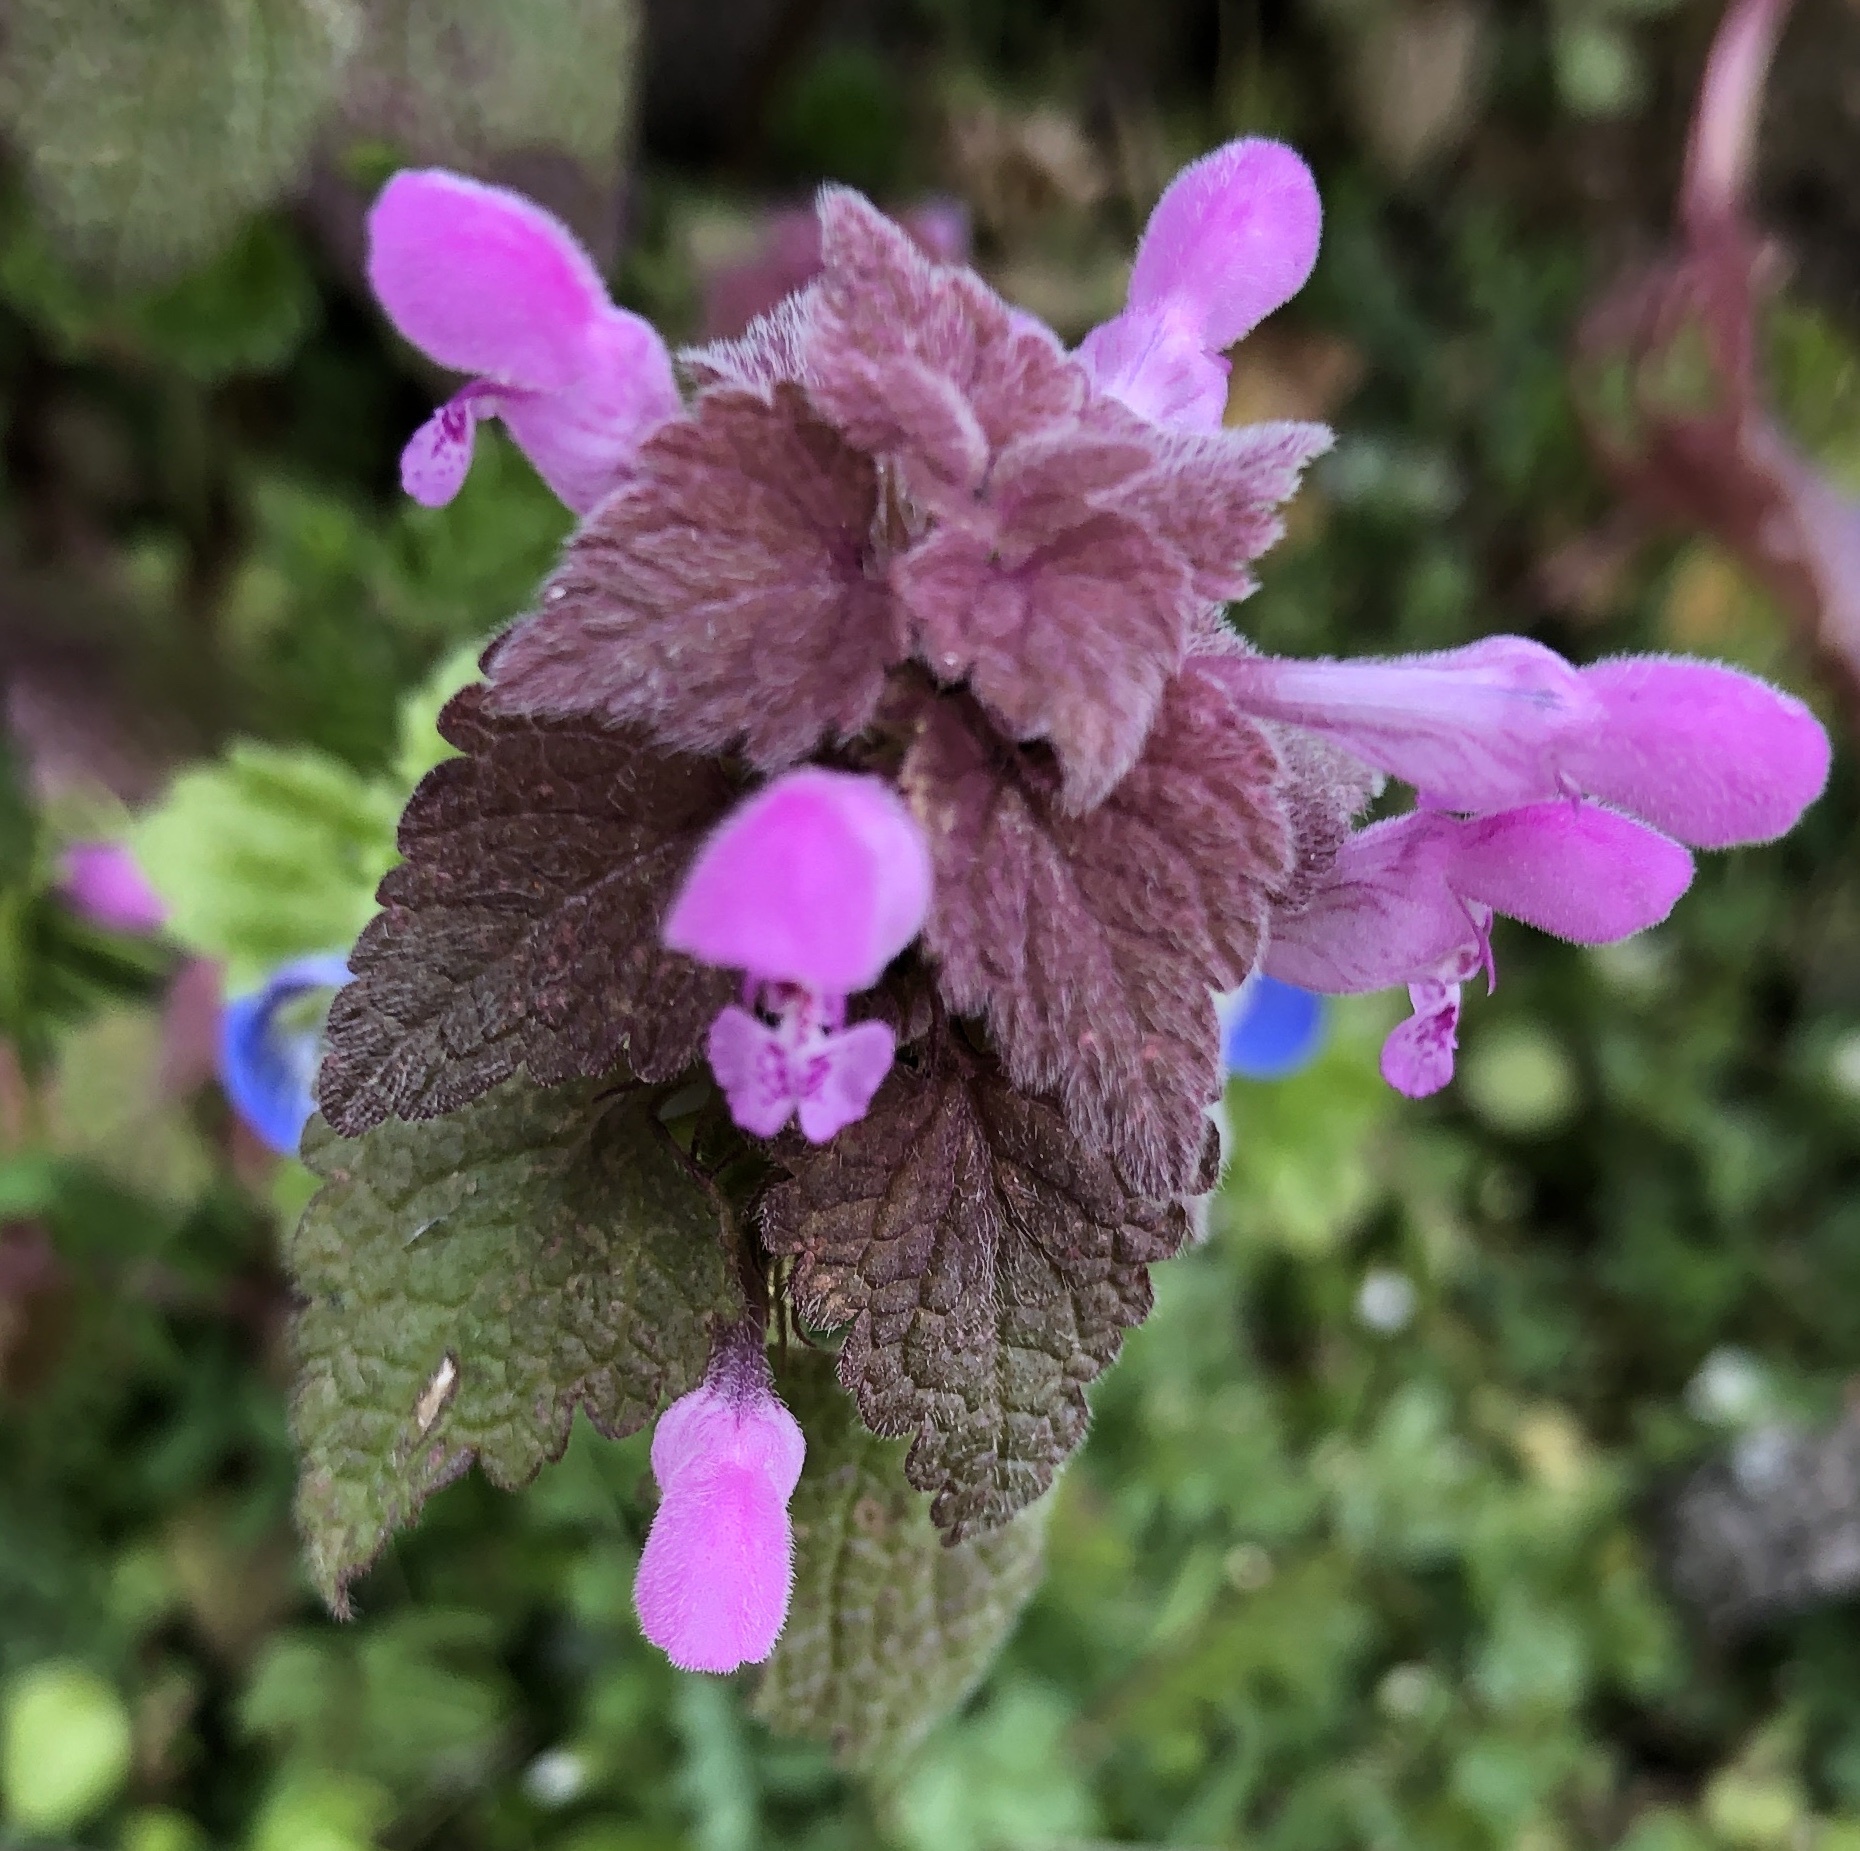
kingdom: Plantae
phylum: Tracheophyta
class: Magnoliopsida
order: Lamiales
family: Lamiaceae
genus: Lamium
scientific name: Lamium purpureum
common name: Red dead-nettle
